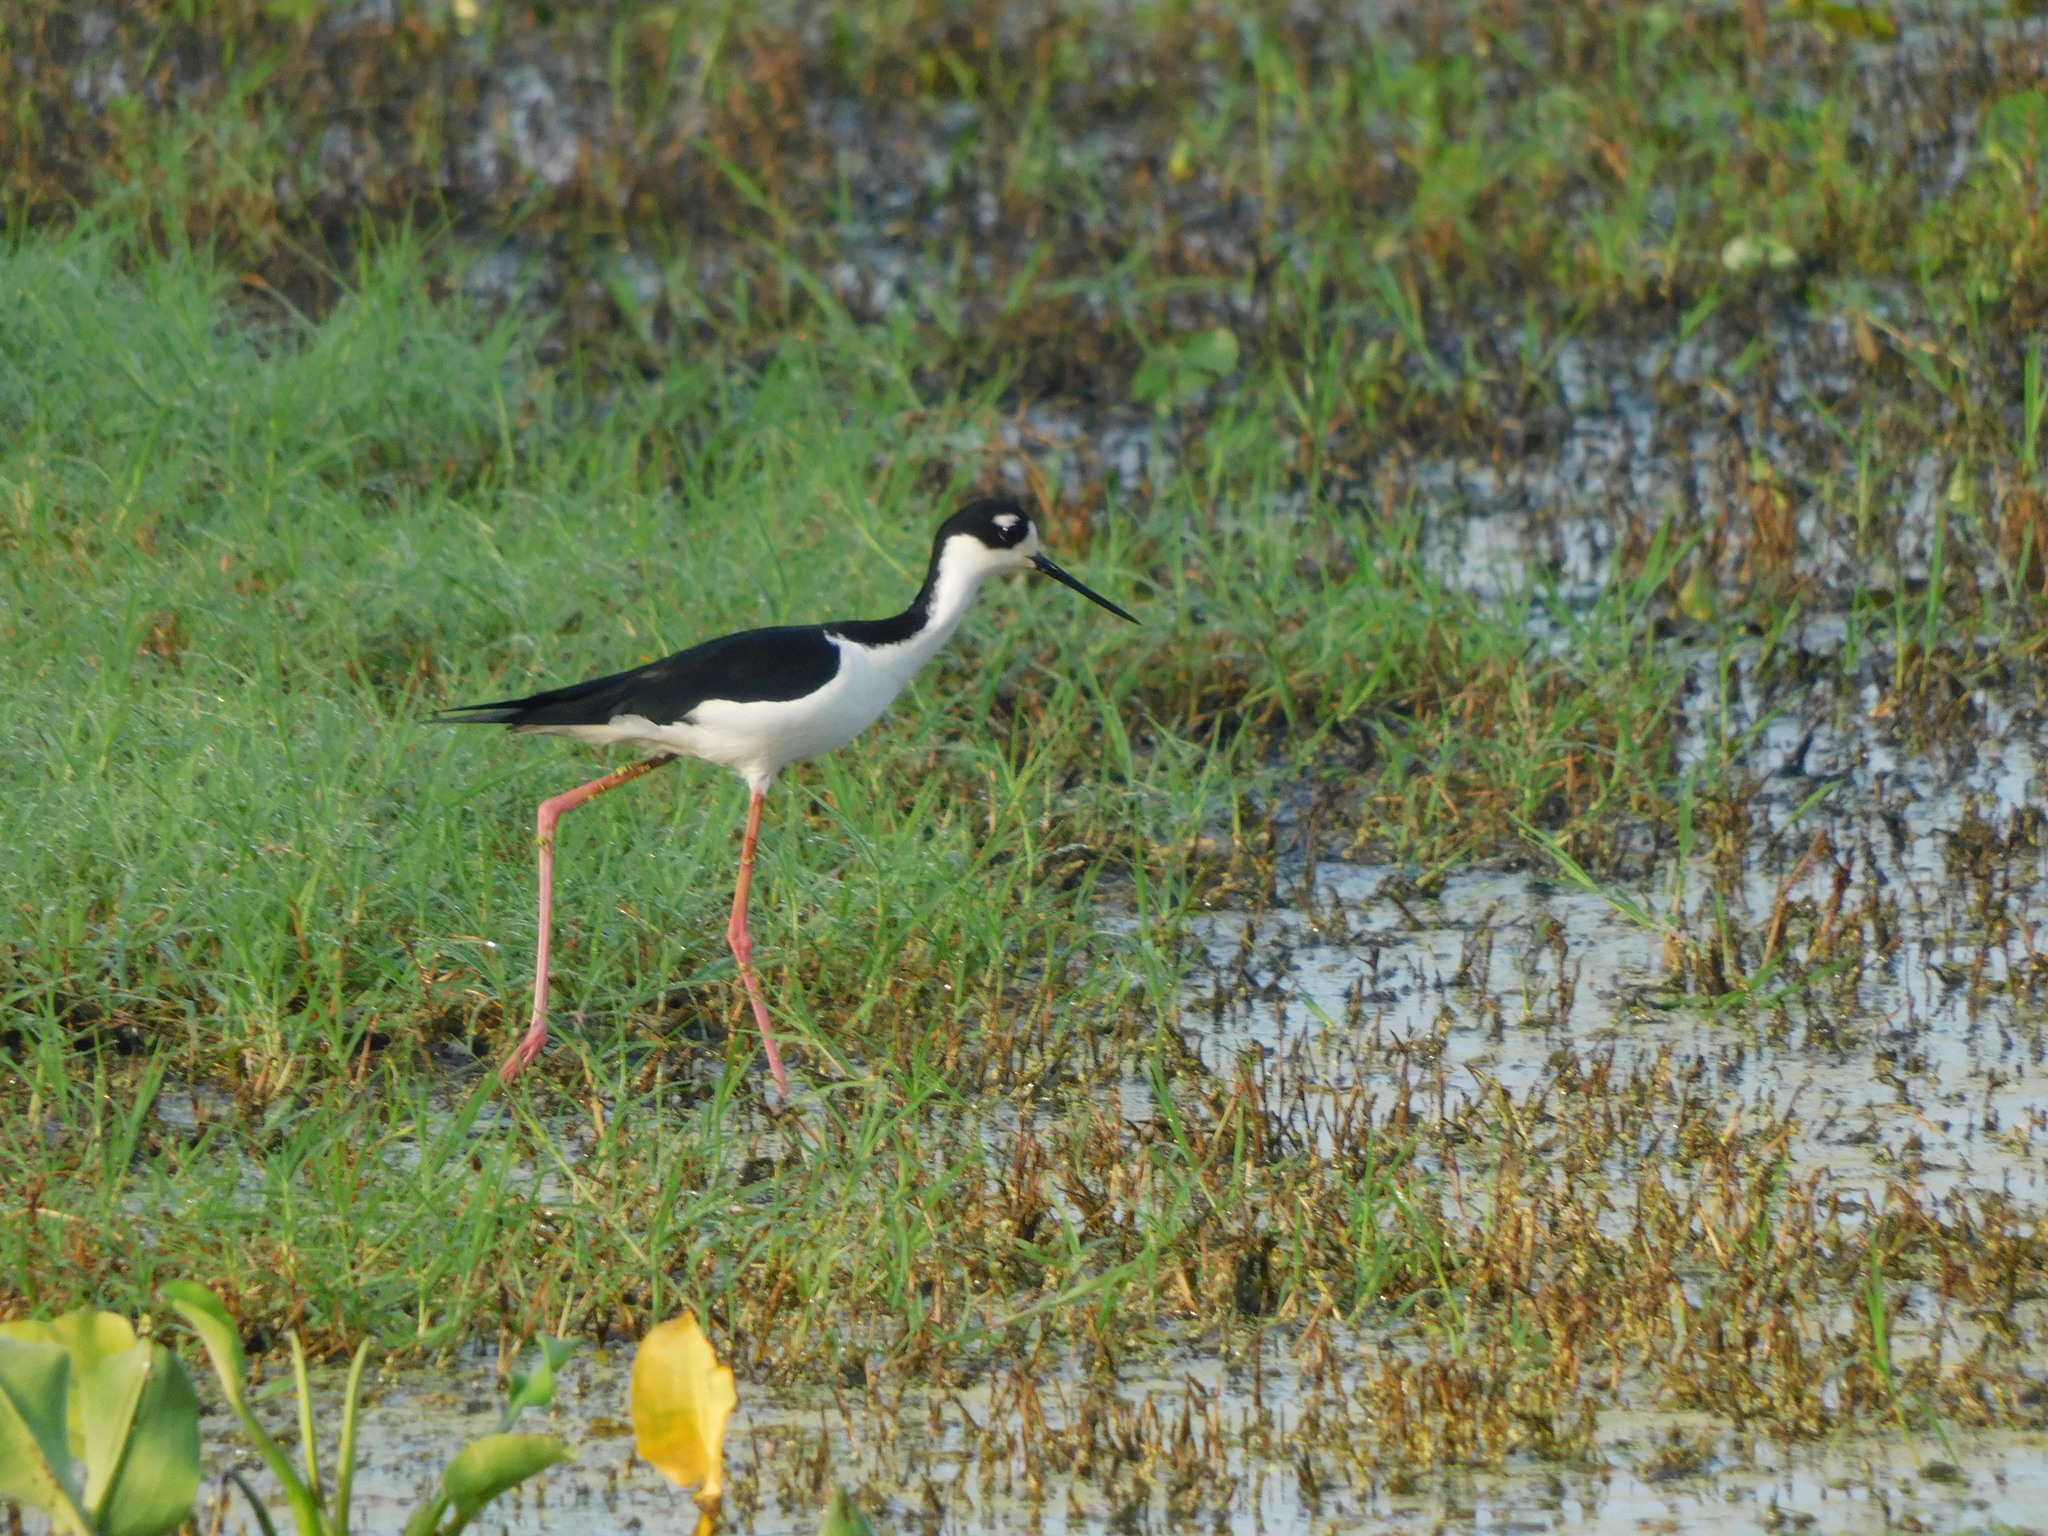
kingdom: Animalia
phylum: Chordata
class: Aves
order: Charadriiformes
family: Recurvirostridae
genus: Himantopus
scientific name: Himantopus mexicanus
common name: Black-necked stilt
